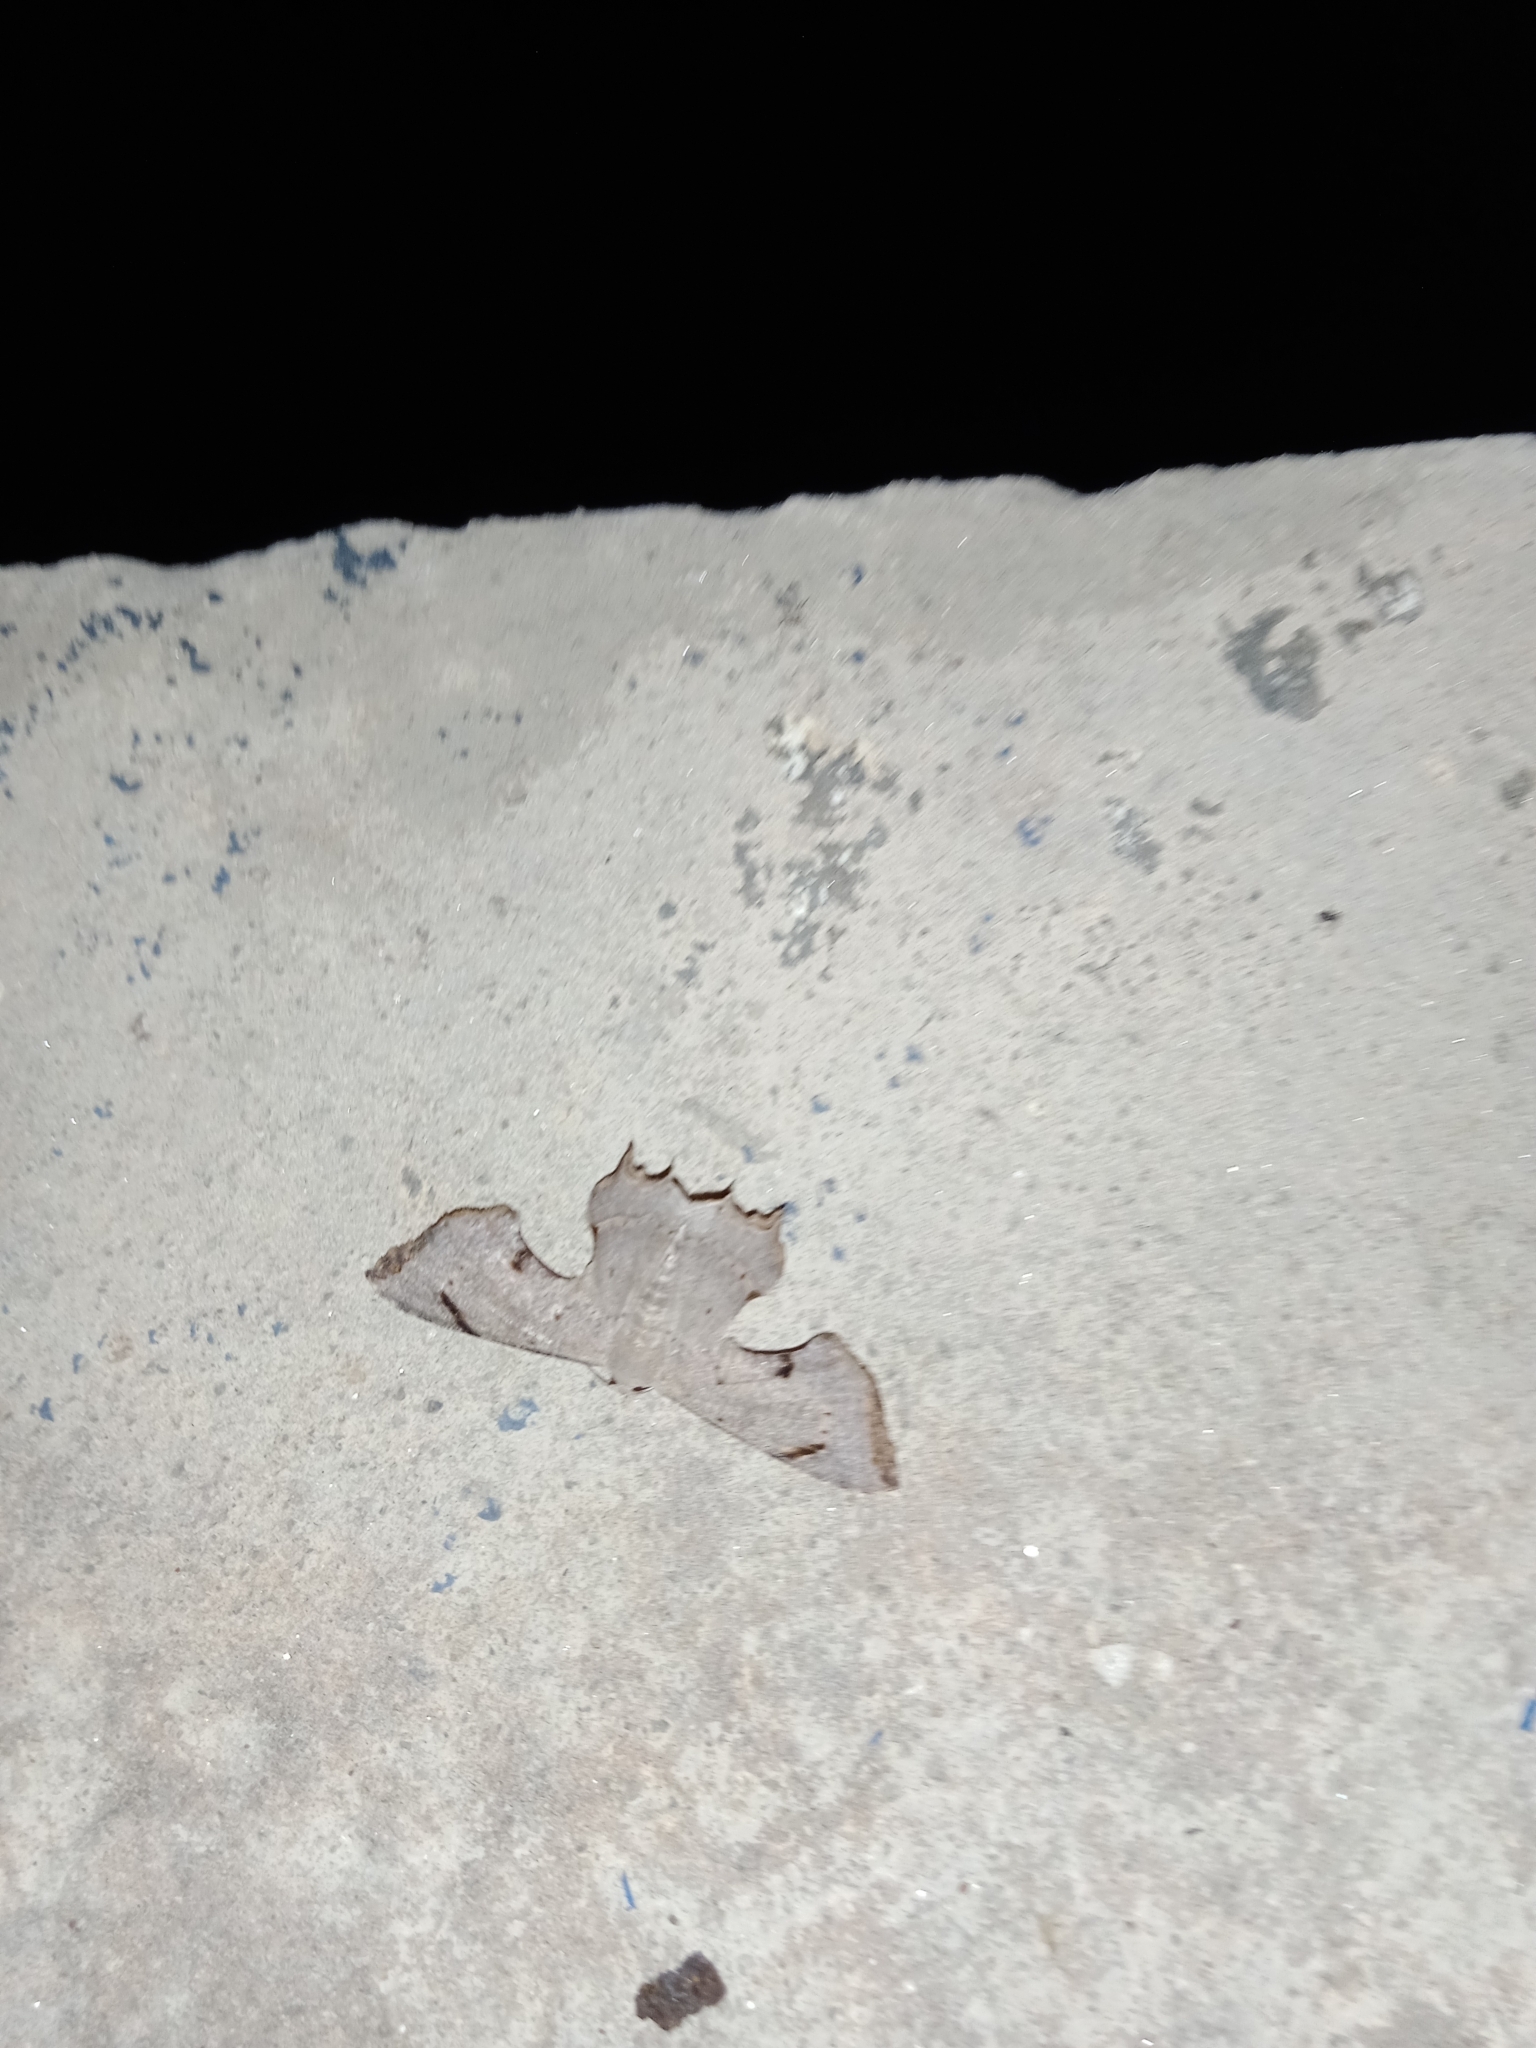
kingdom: Animalia
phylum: Arthropoda
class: Insecta
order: Lepidoptera
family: Uraniidae
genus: Dysaethria
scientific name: Dysaethria quadricaudata
